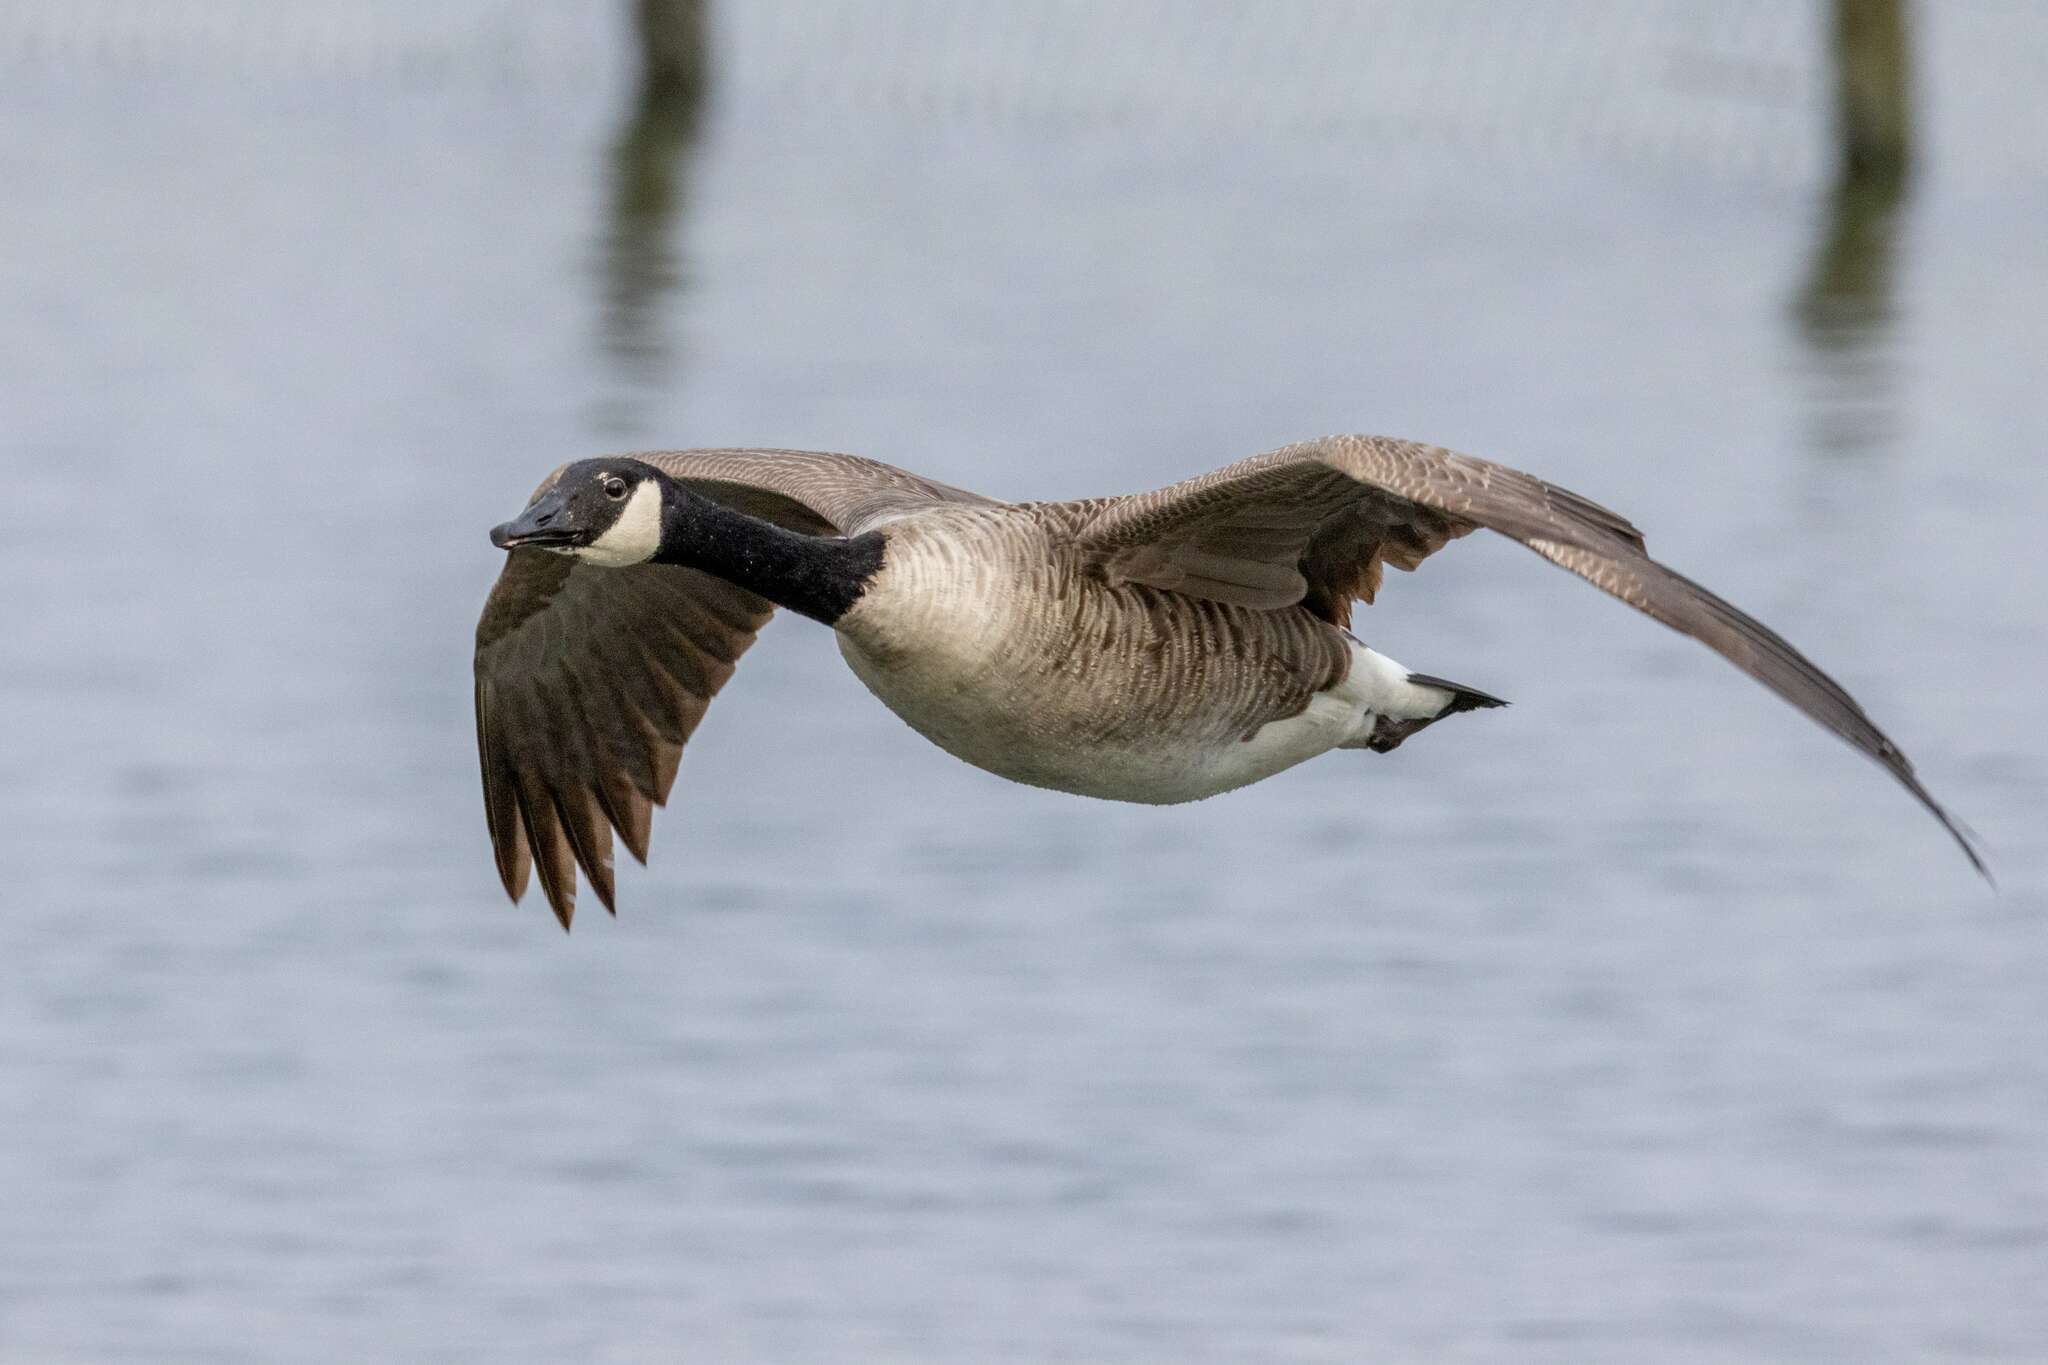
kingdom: Animalia
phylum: Chordata
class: Aves
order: Anseriformes
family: Anatidae
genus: Branta
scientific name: Branta canadensis
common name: Canada goose
